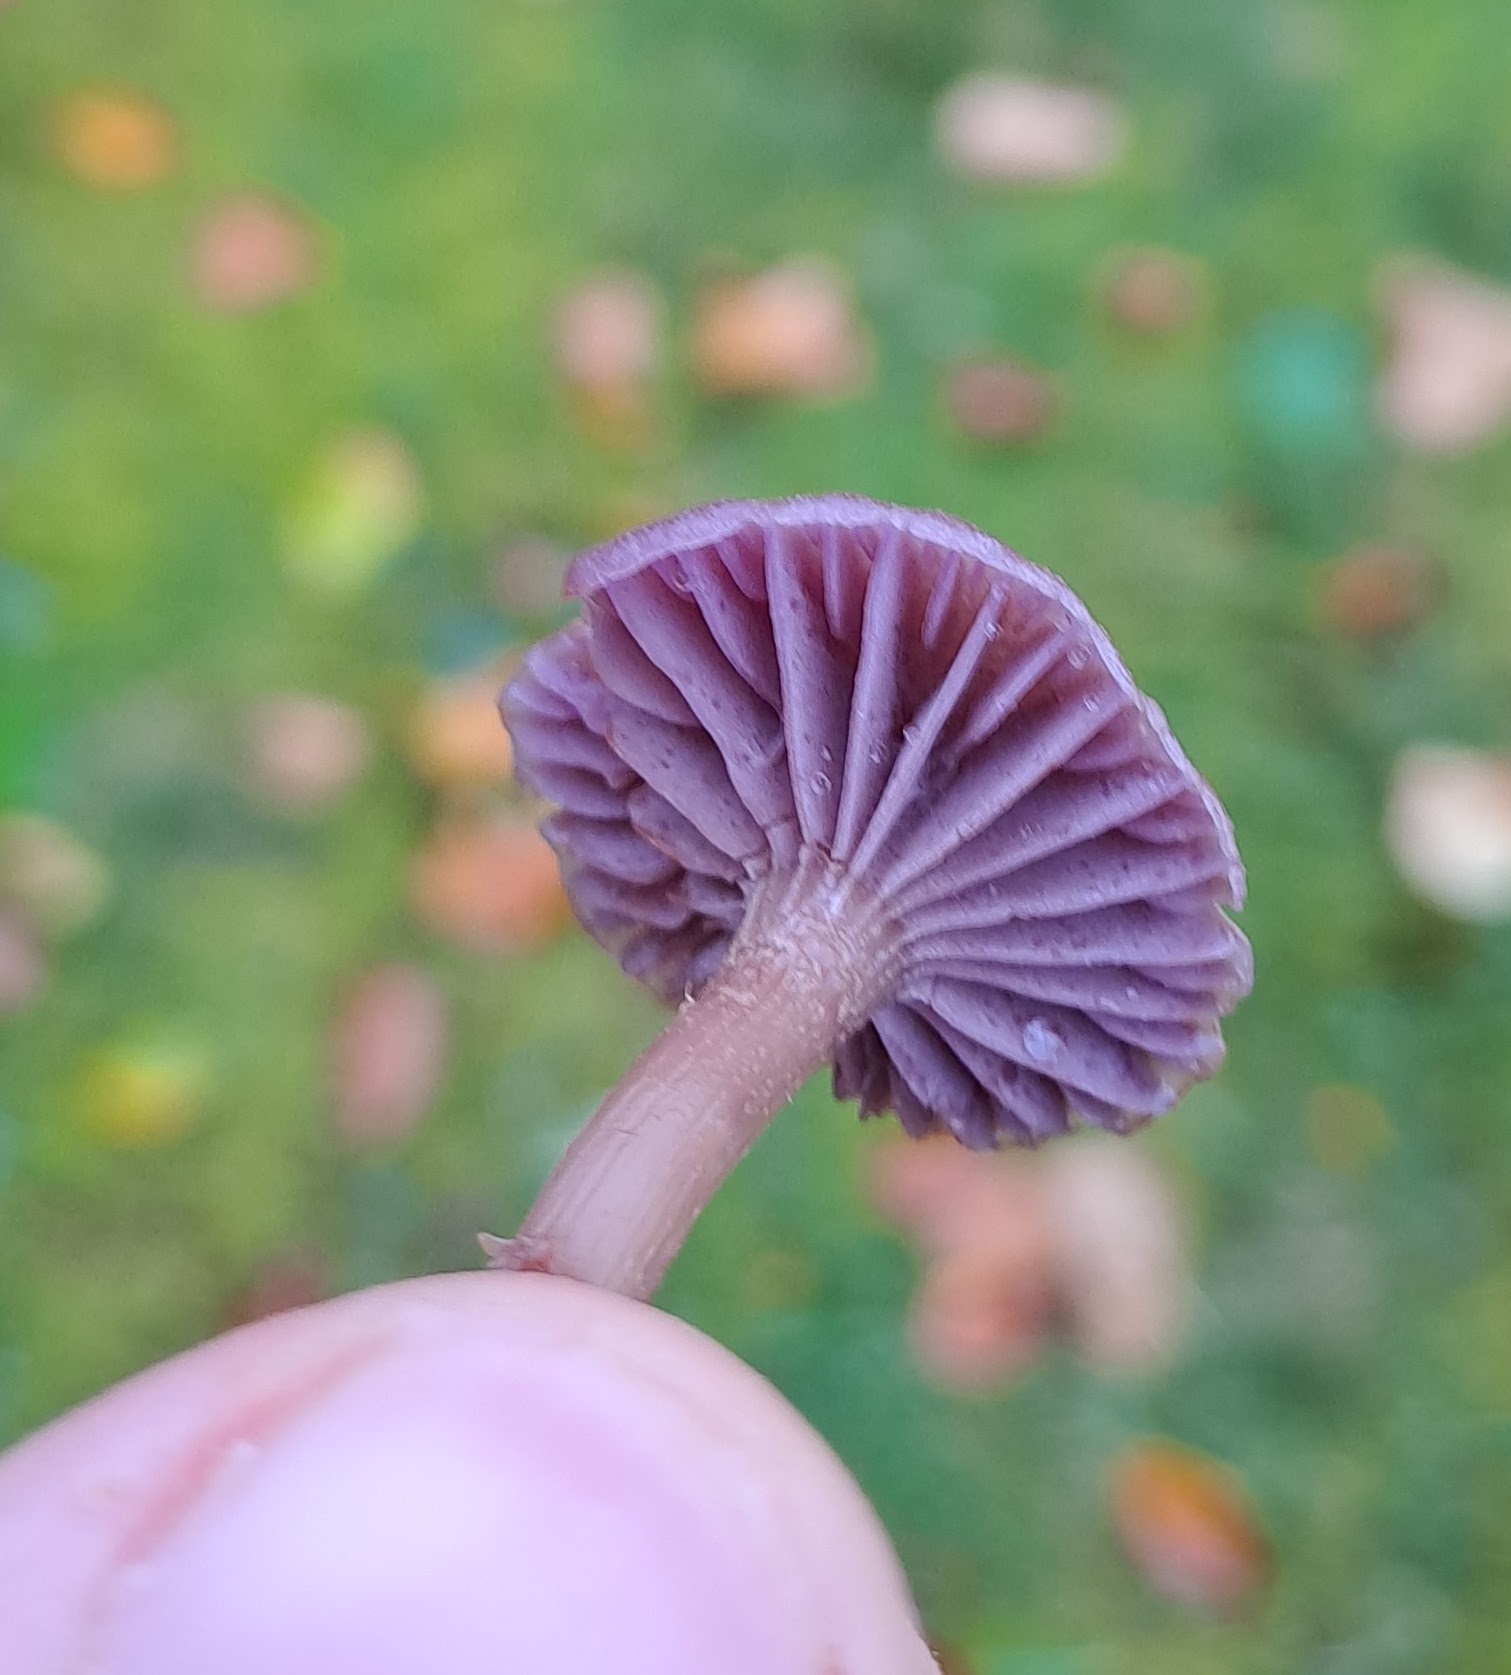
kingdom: Fungi
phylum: Basidiomycota
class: Agaricomycetes
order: Agaricales
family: Hydnangiaceae
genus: Laccaria
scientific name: Laccaria amethystina
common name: Amethyst deceiver
